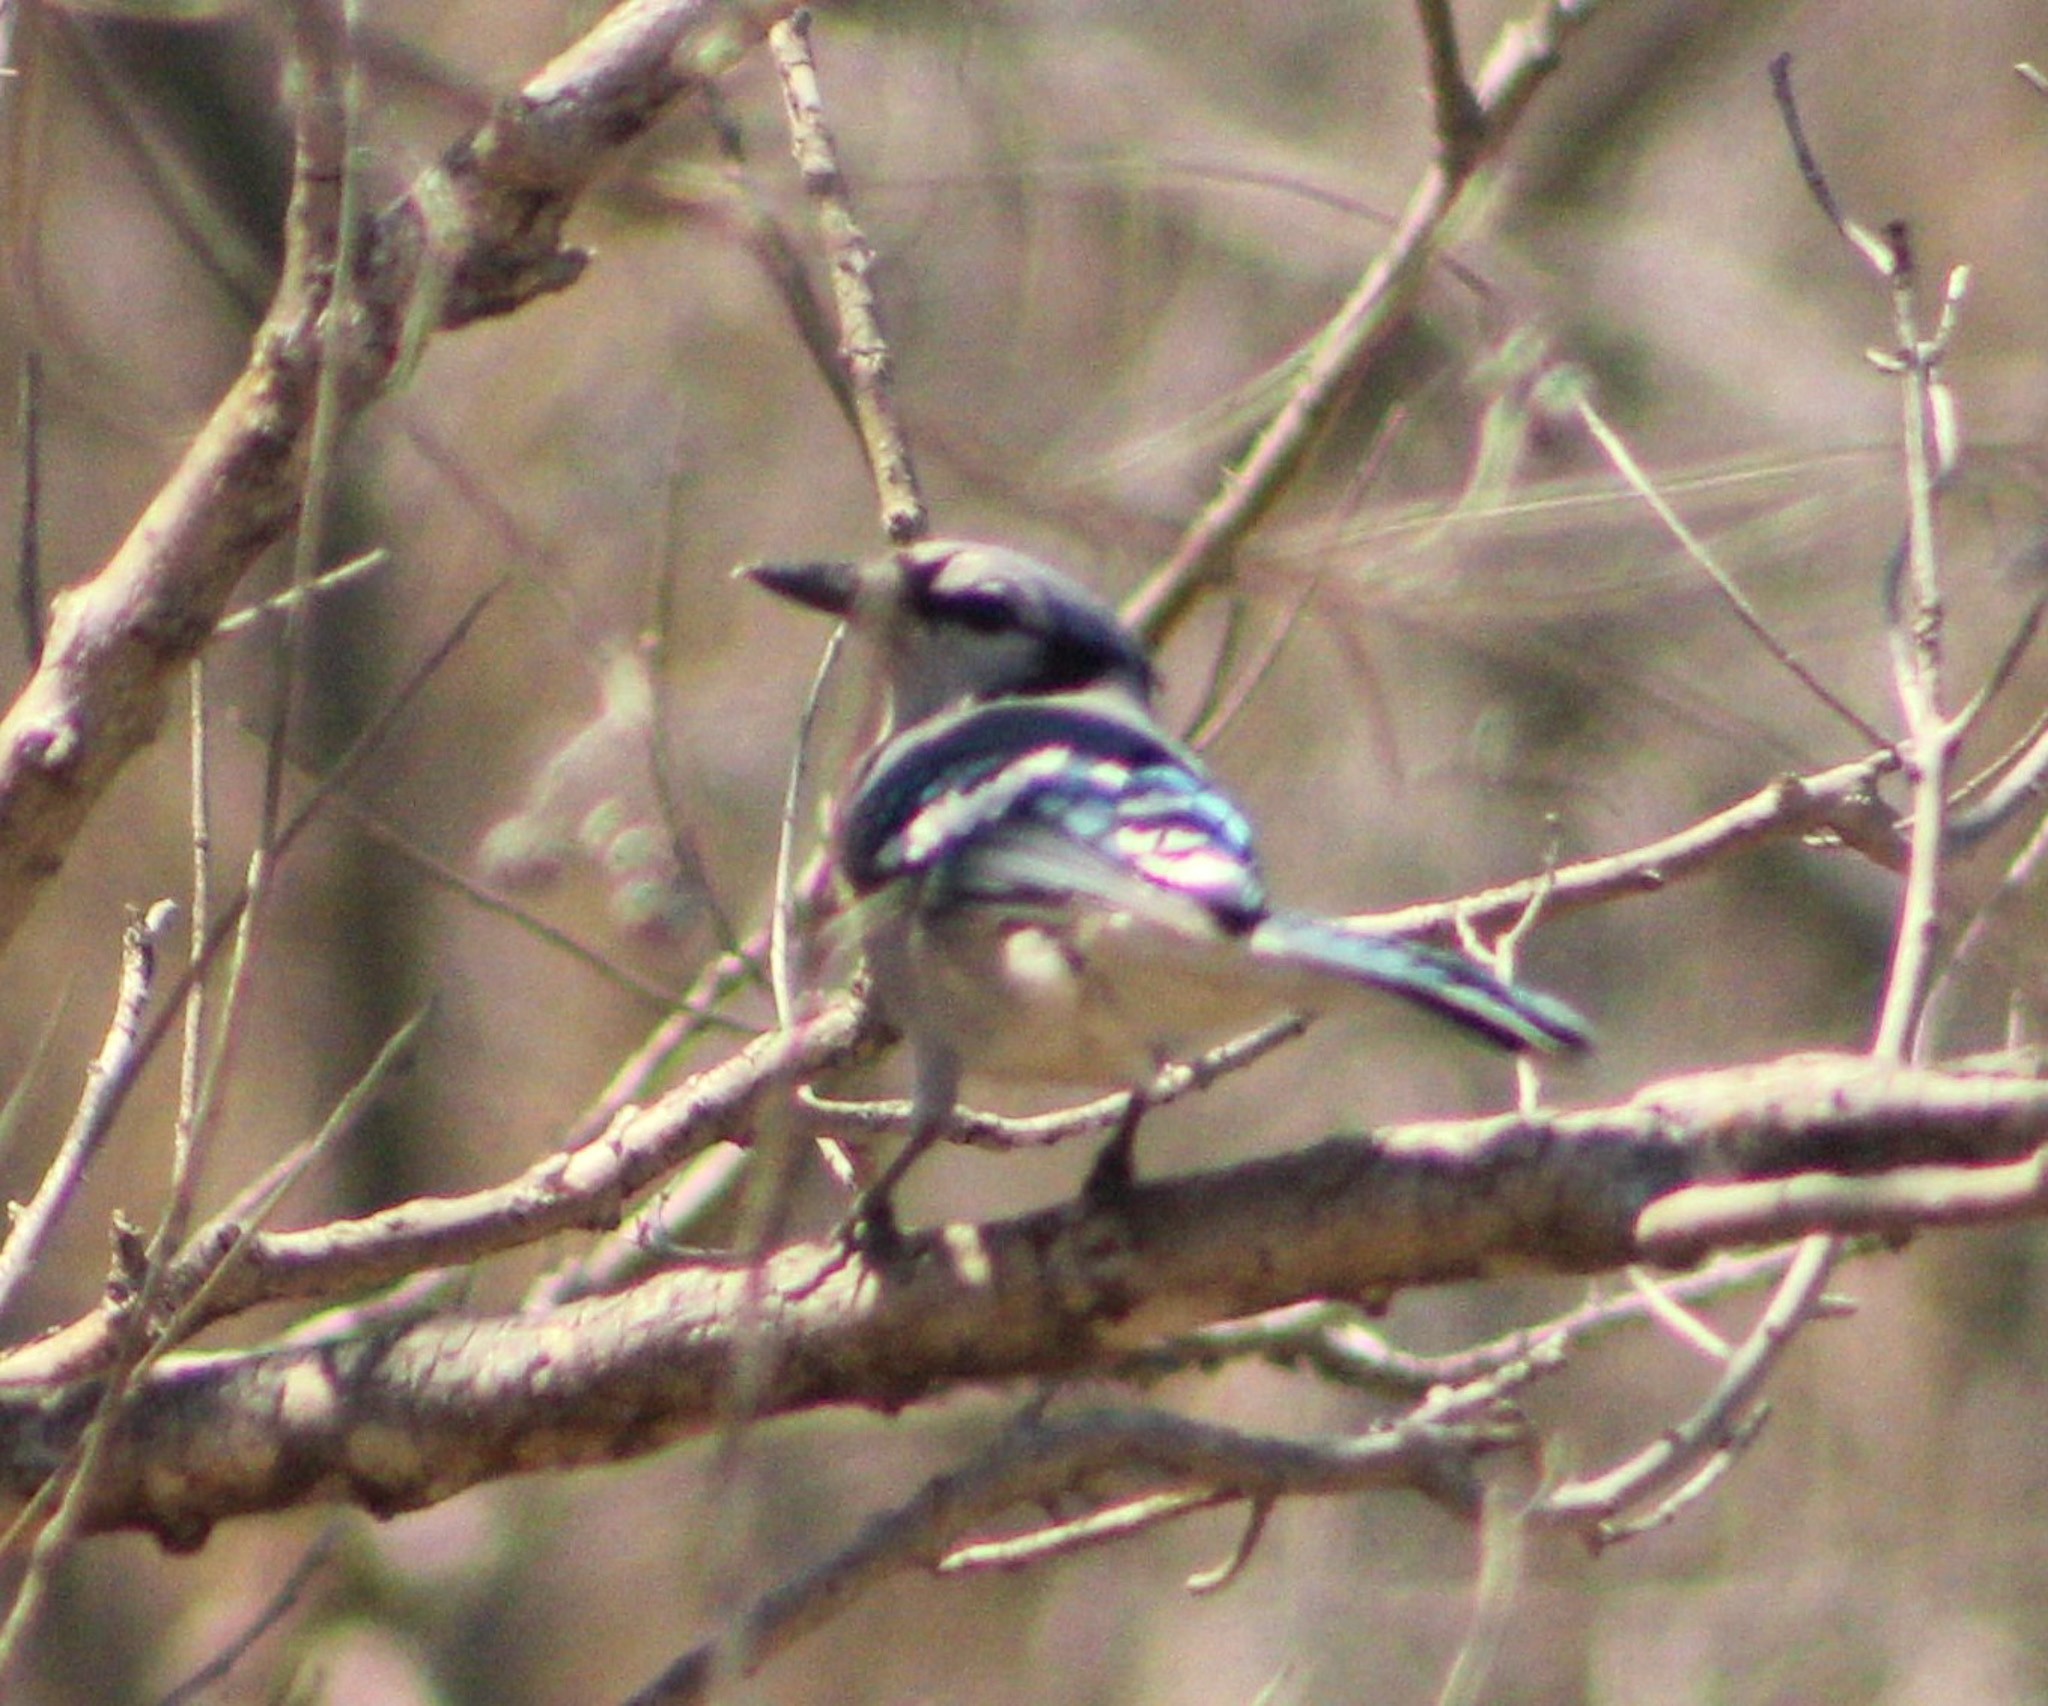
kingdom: Animalia
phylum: Chordata
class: Aves
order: Passeriformes
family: Corvidae
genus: Cyanocitta
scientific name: Cyanocitta cristata
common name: Blue jay
